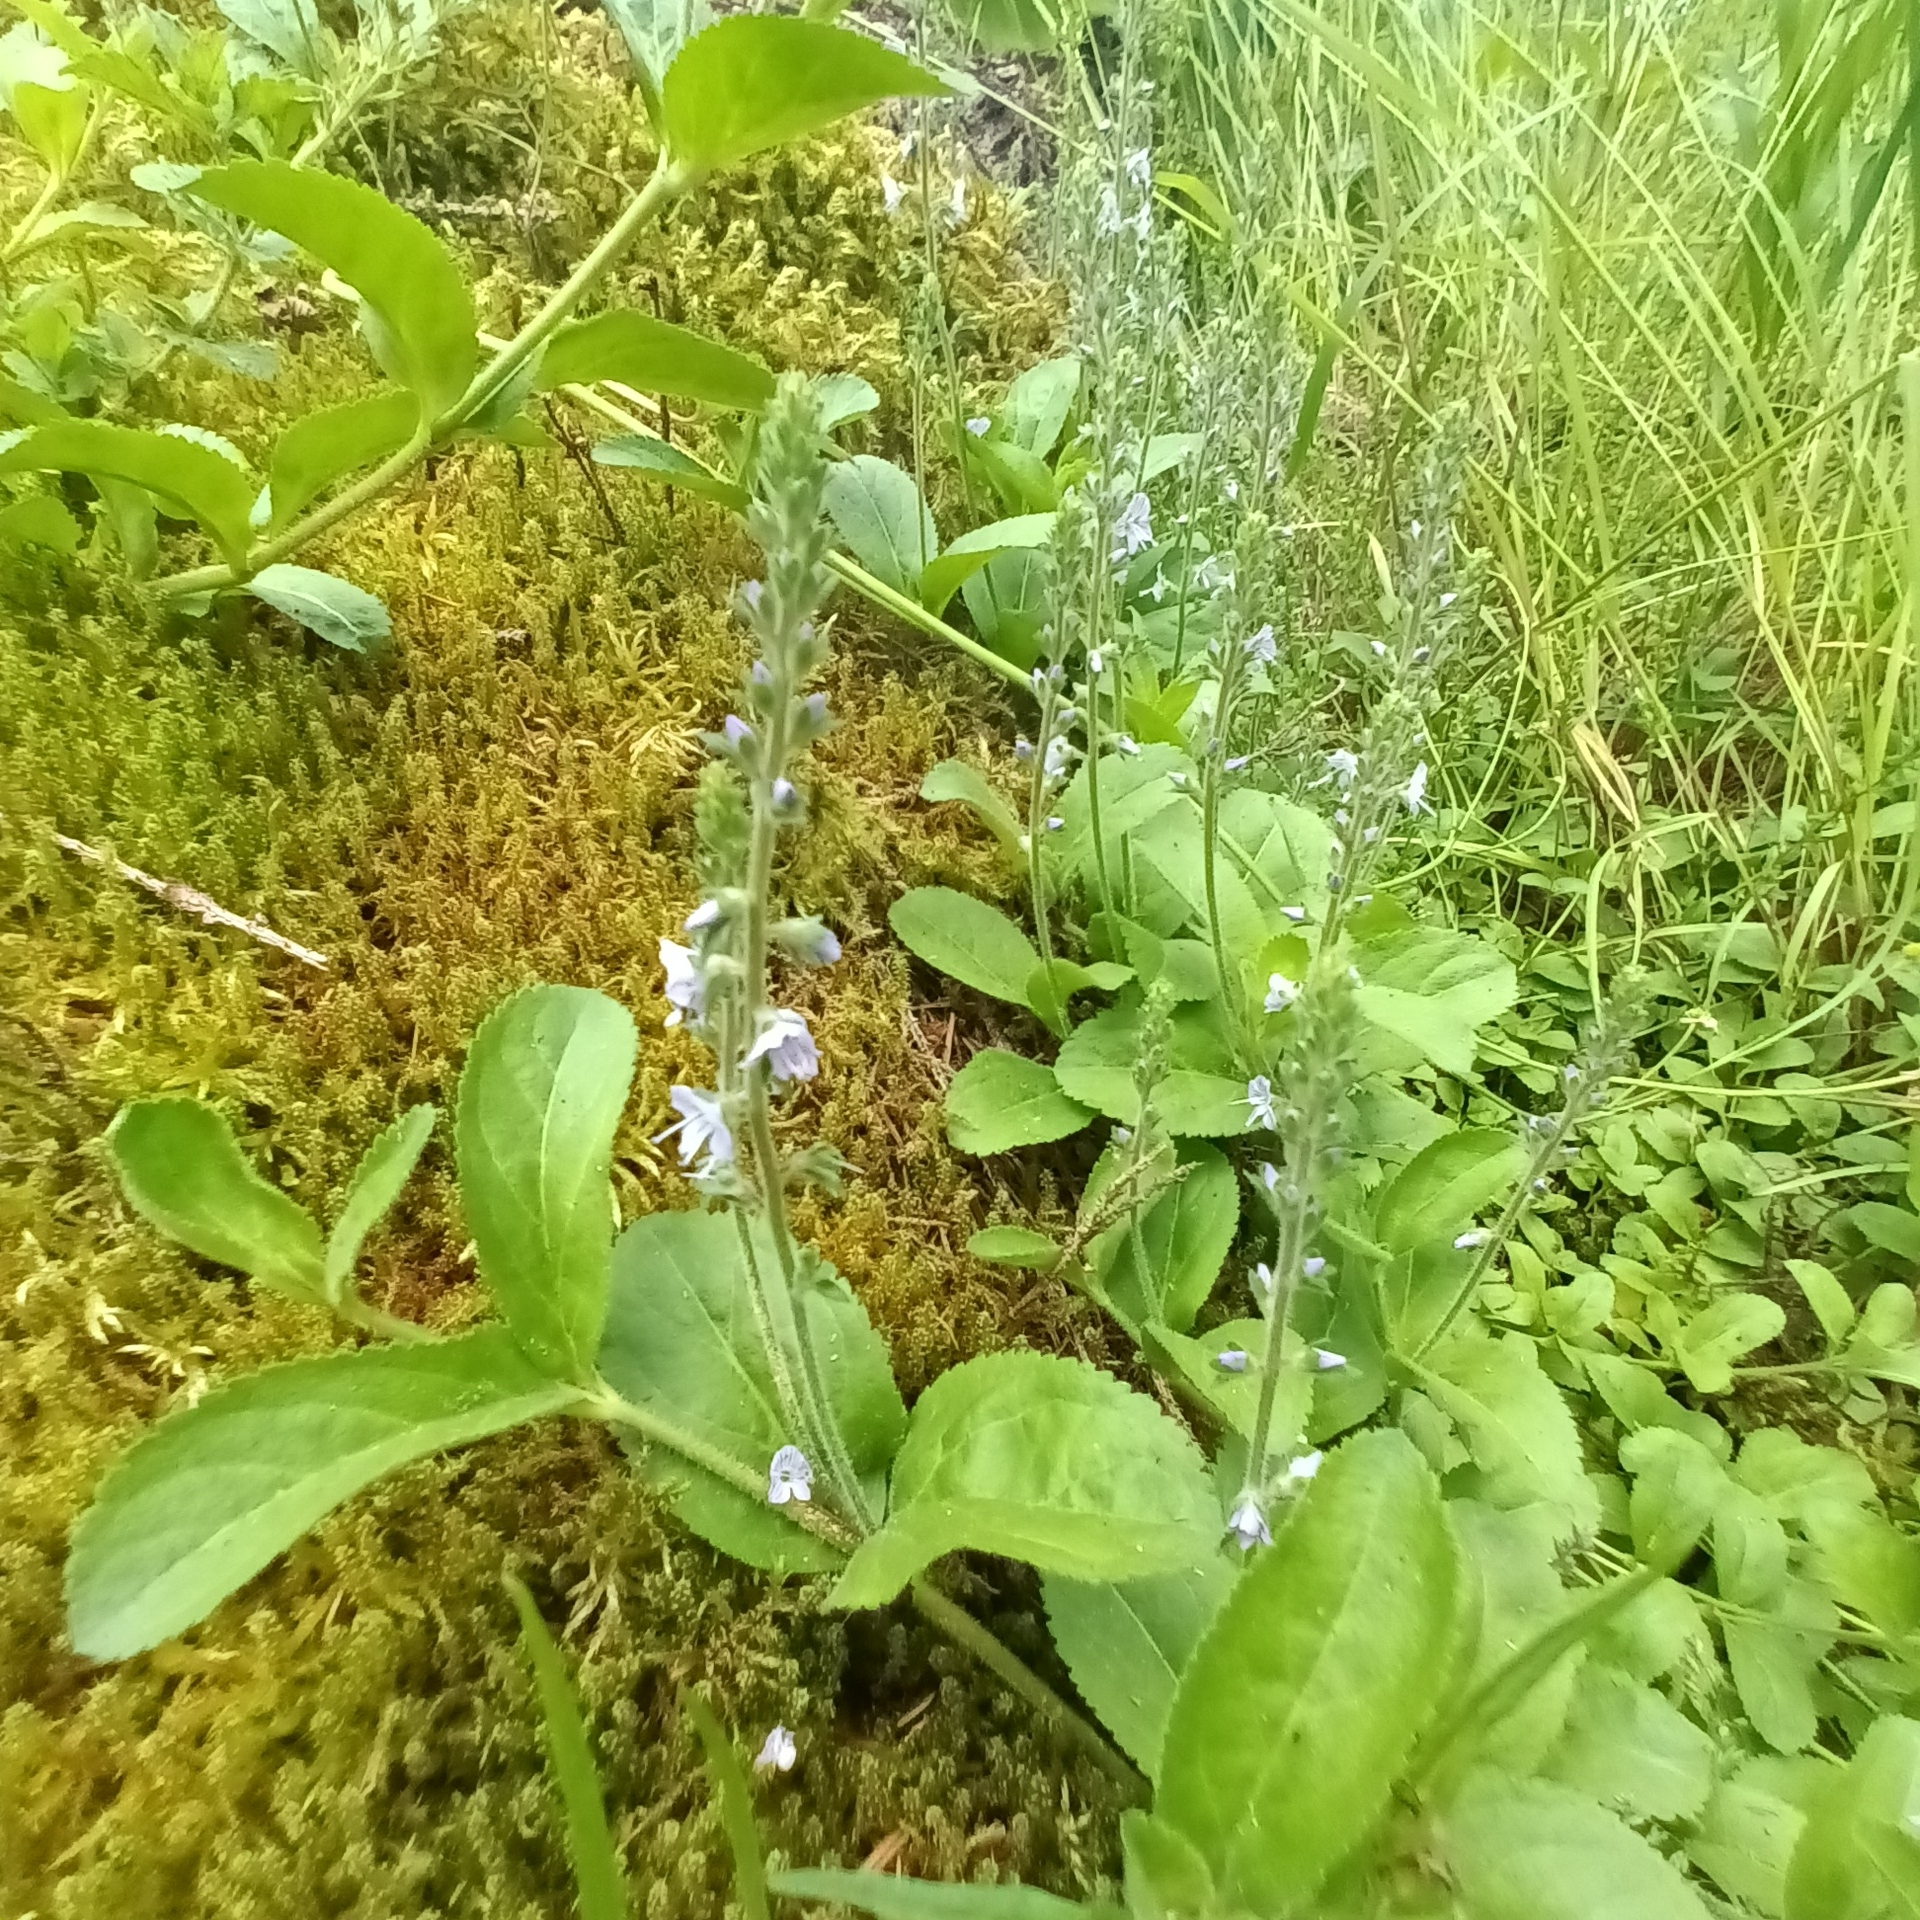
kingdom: Plantae
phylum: Tracheophyta
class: Magnoliopsida
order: Lamiales
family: Plantaginaceae
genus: Veronica
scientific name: Veronica officinalis
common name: Common speedwell
